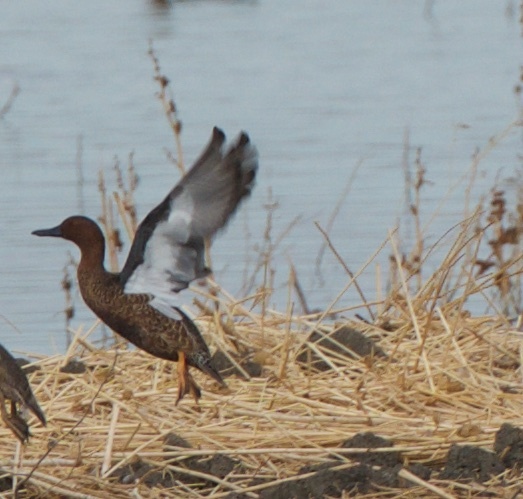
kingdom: Animalia
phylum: Chordata
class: Aves
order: Anseriformes
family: Anatidae
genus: Spatula
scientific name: Spatula cyanoptera
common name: Cinnamon teal
